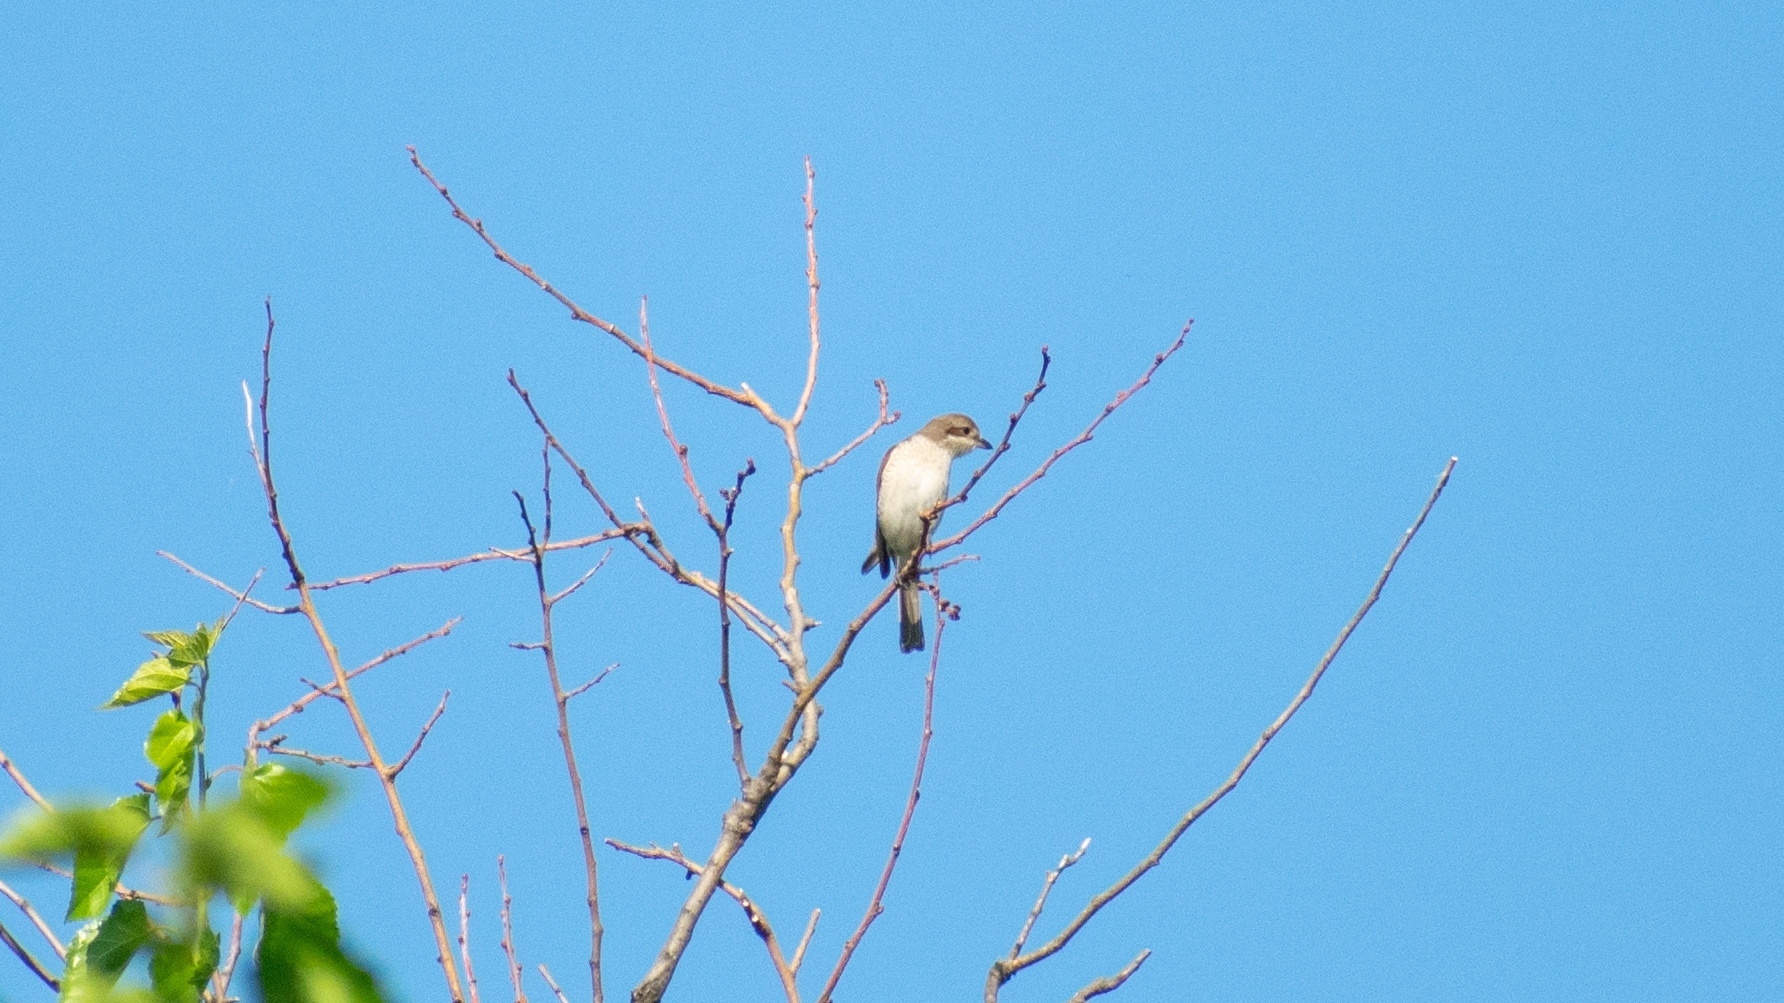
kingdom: Animalia
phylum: Chordata
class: Aves
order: Passeriformes
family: Laniidae
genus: Lanius
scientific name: Lanius collurio
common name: Red-backed shrike
